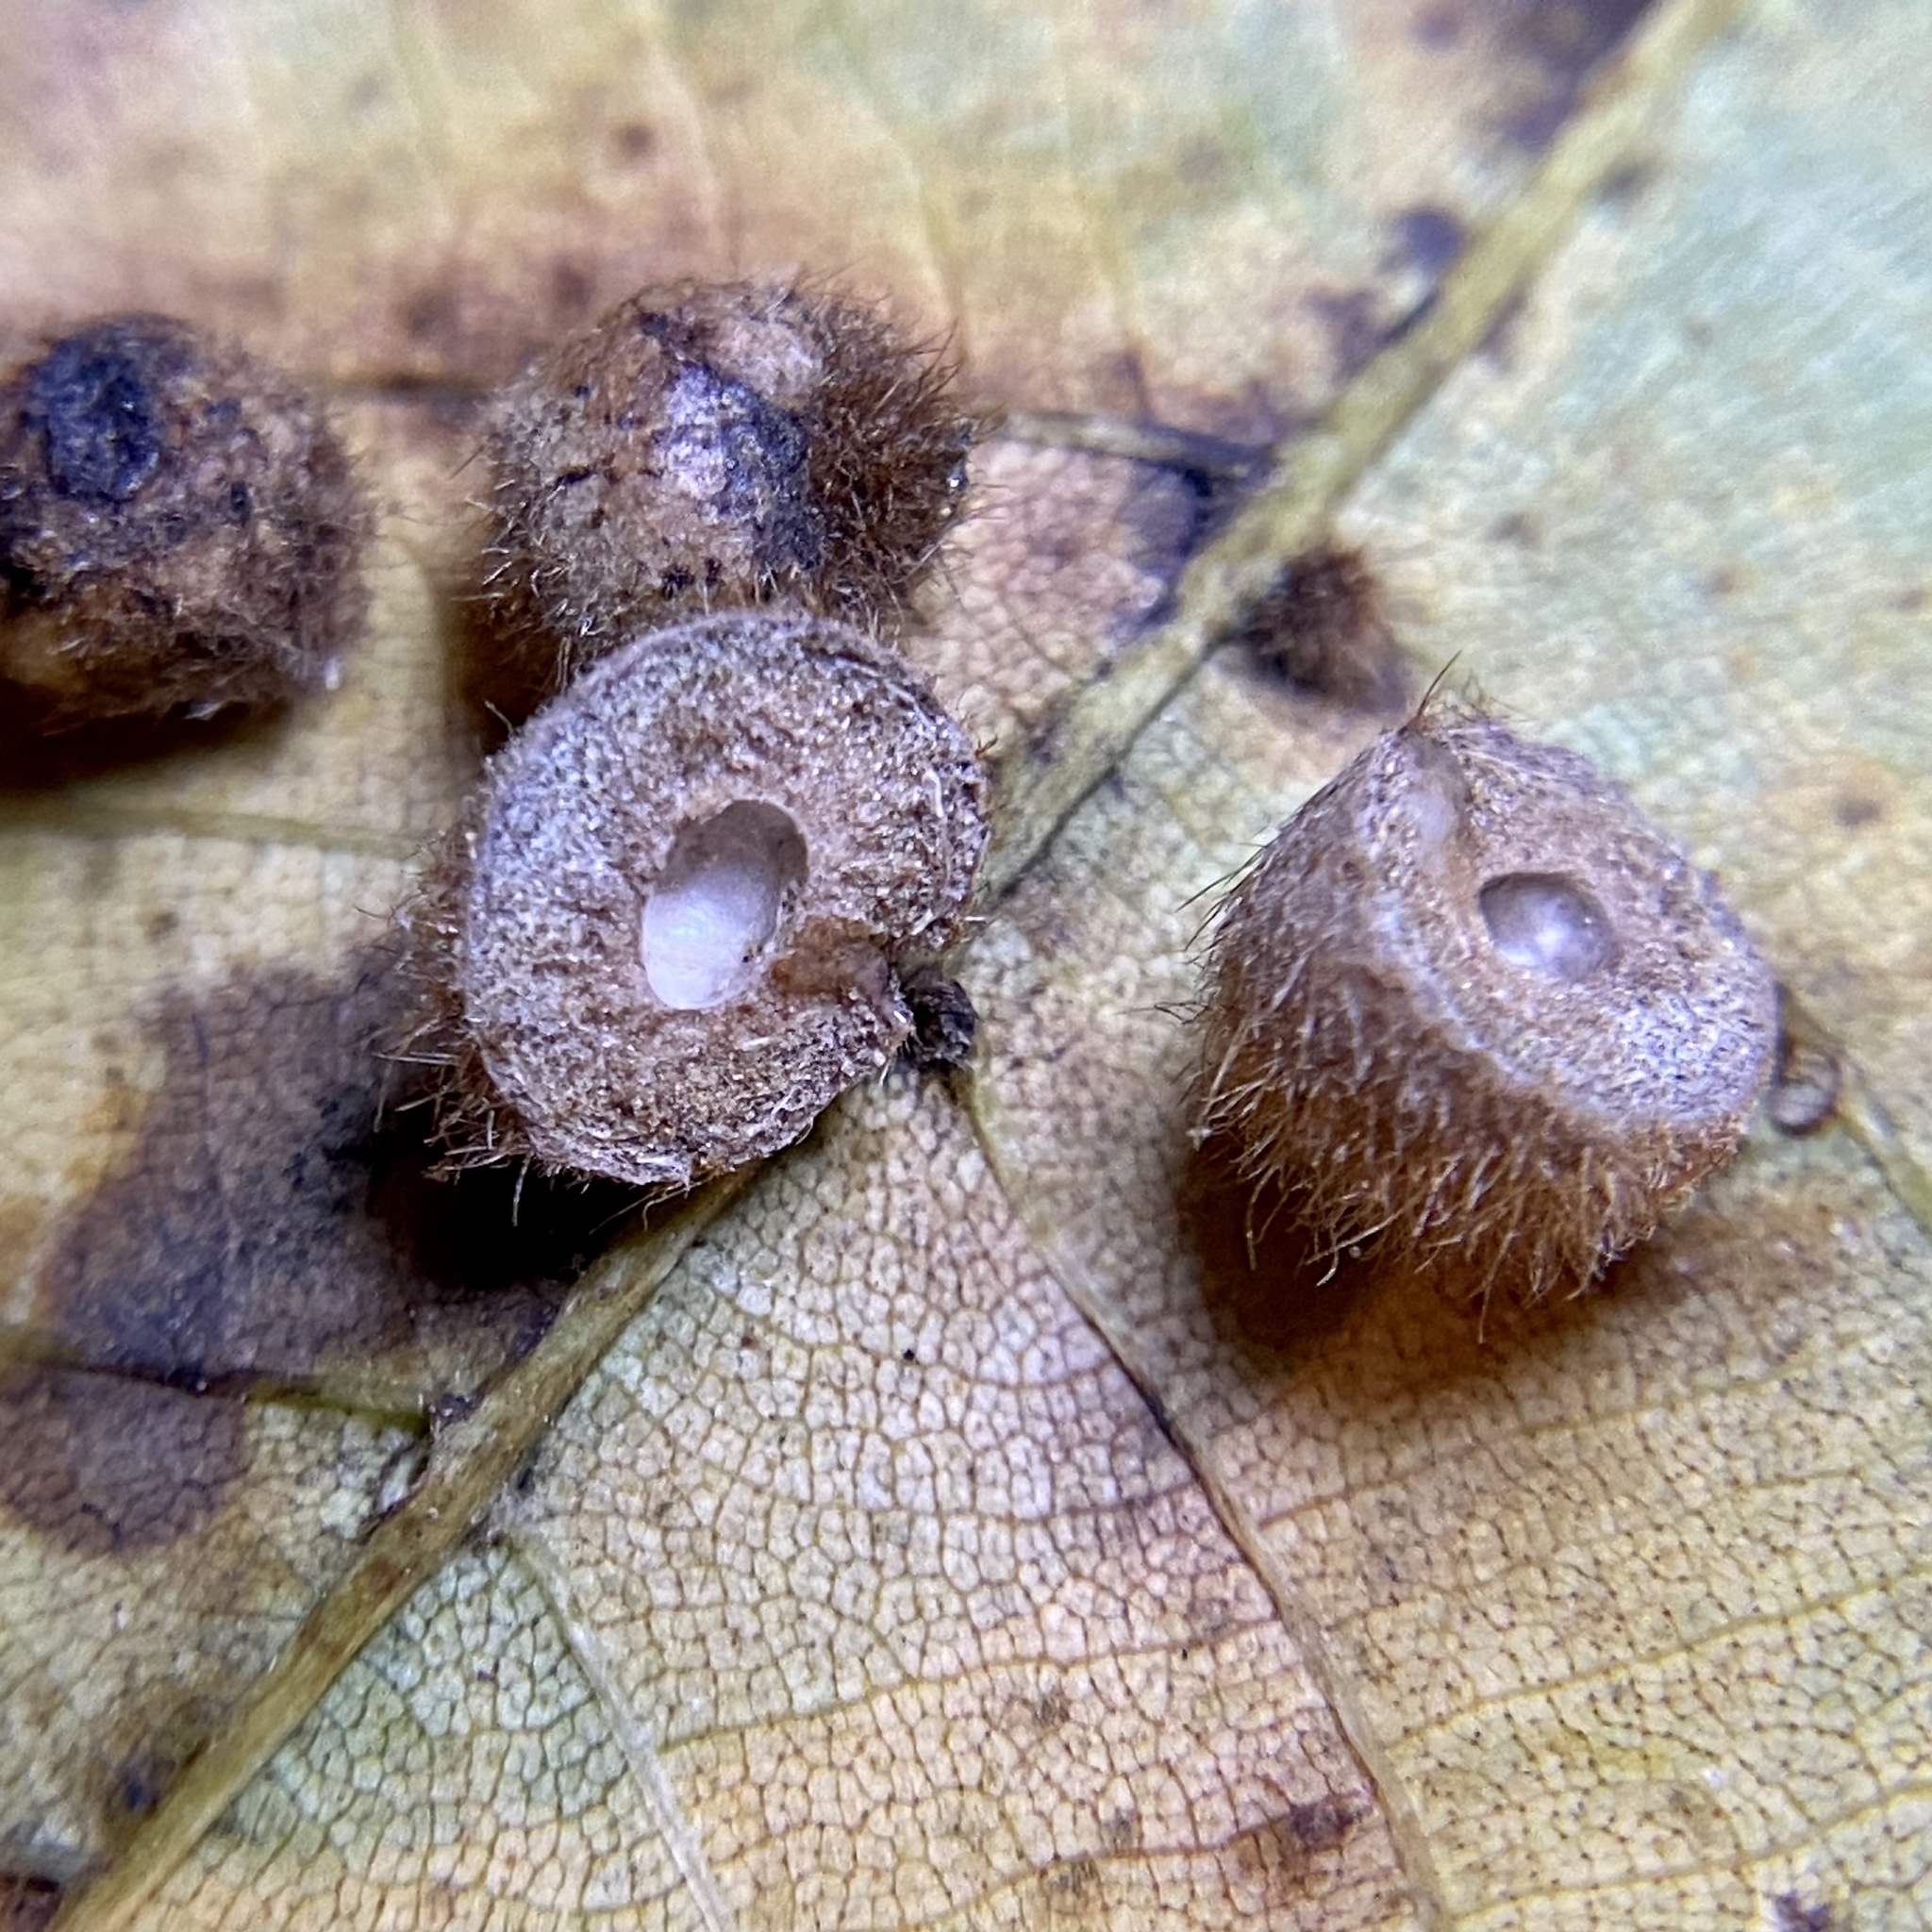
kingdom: Animalia
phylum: Arthropoda
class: Insecta
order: Diptera
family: Cecidomyiidae
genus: Caryomyia
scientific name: Caryomyia spherica
